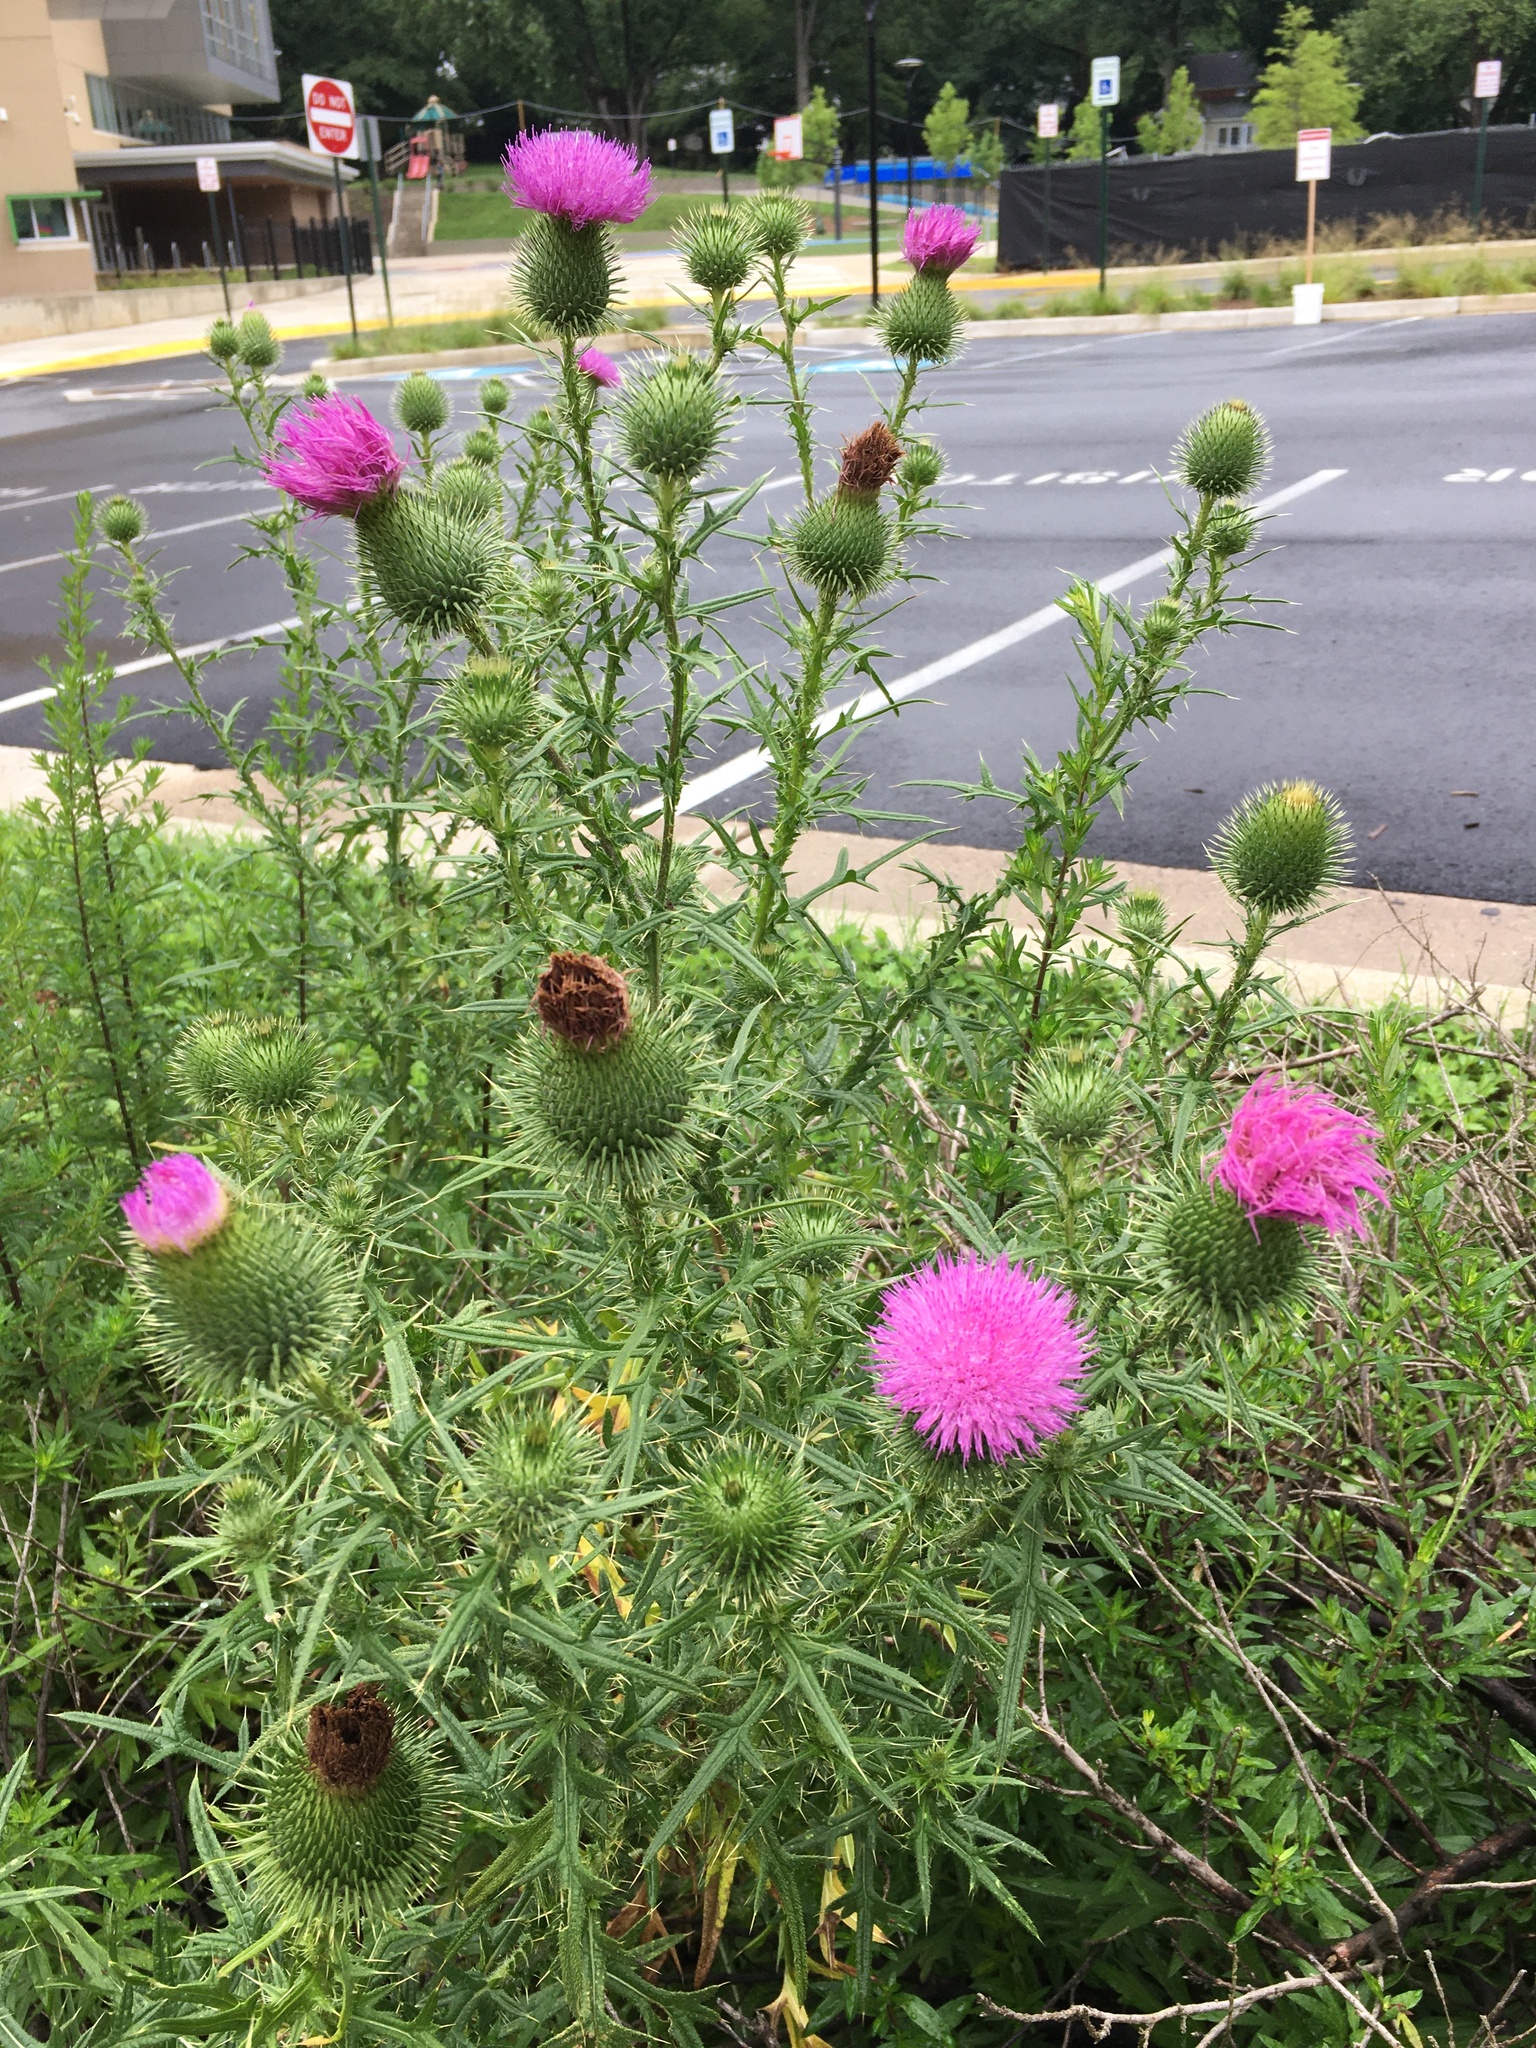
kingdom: Plantae
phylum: Tracheophyta
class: Magnoliopsida
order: Asterales
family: Asteraceae
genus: Cirsium
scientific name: Cirsium vulgare
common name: Bull thistle
